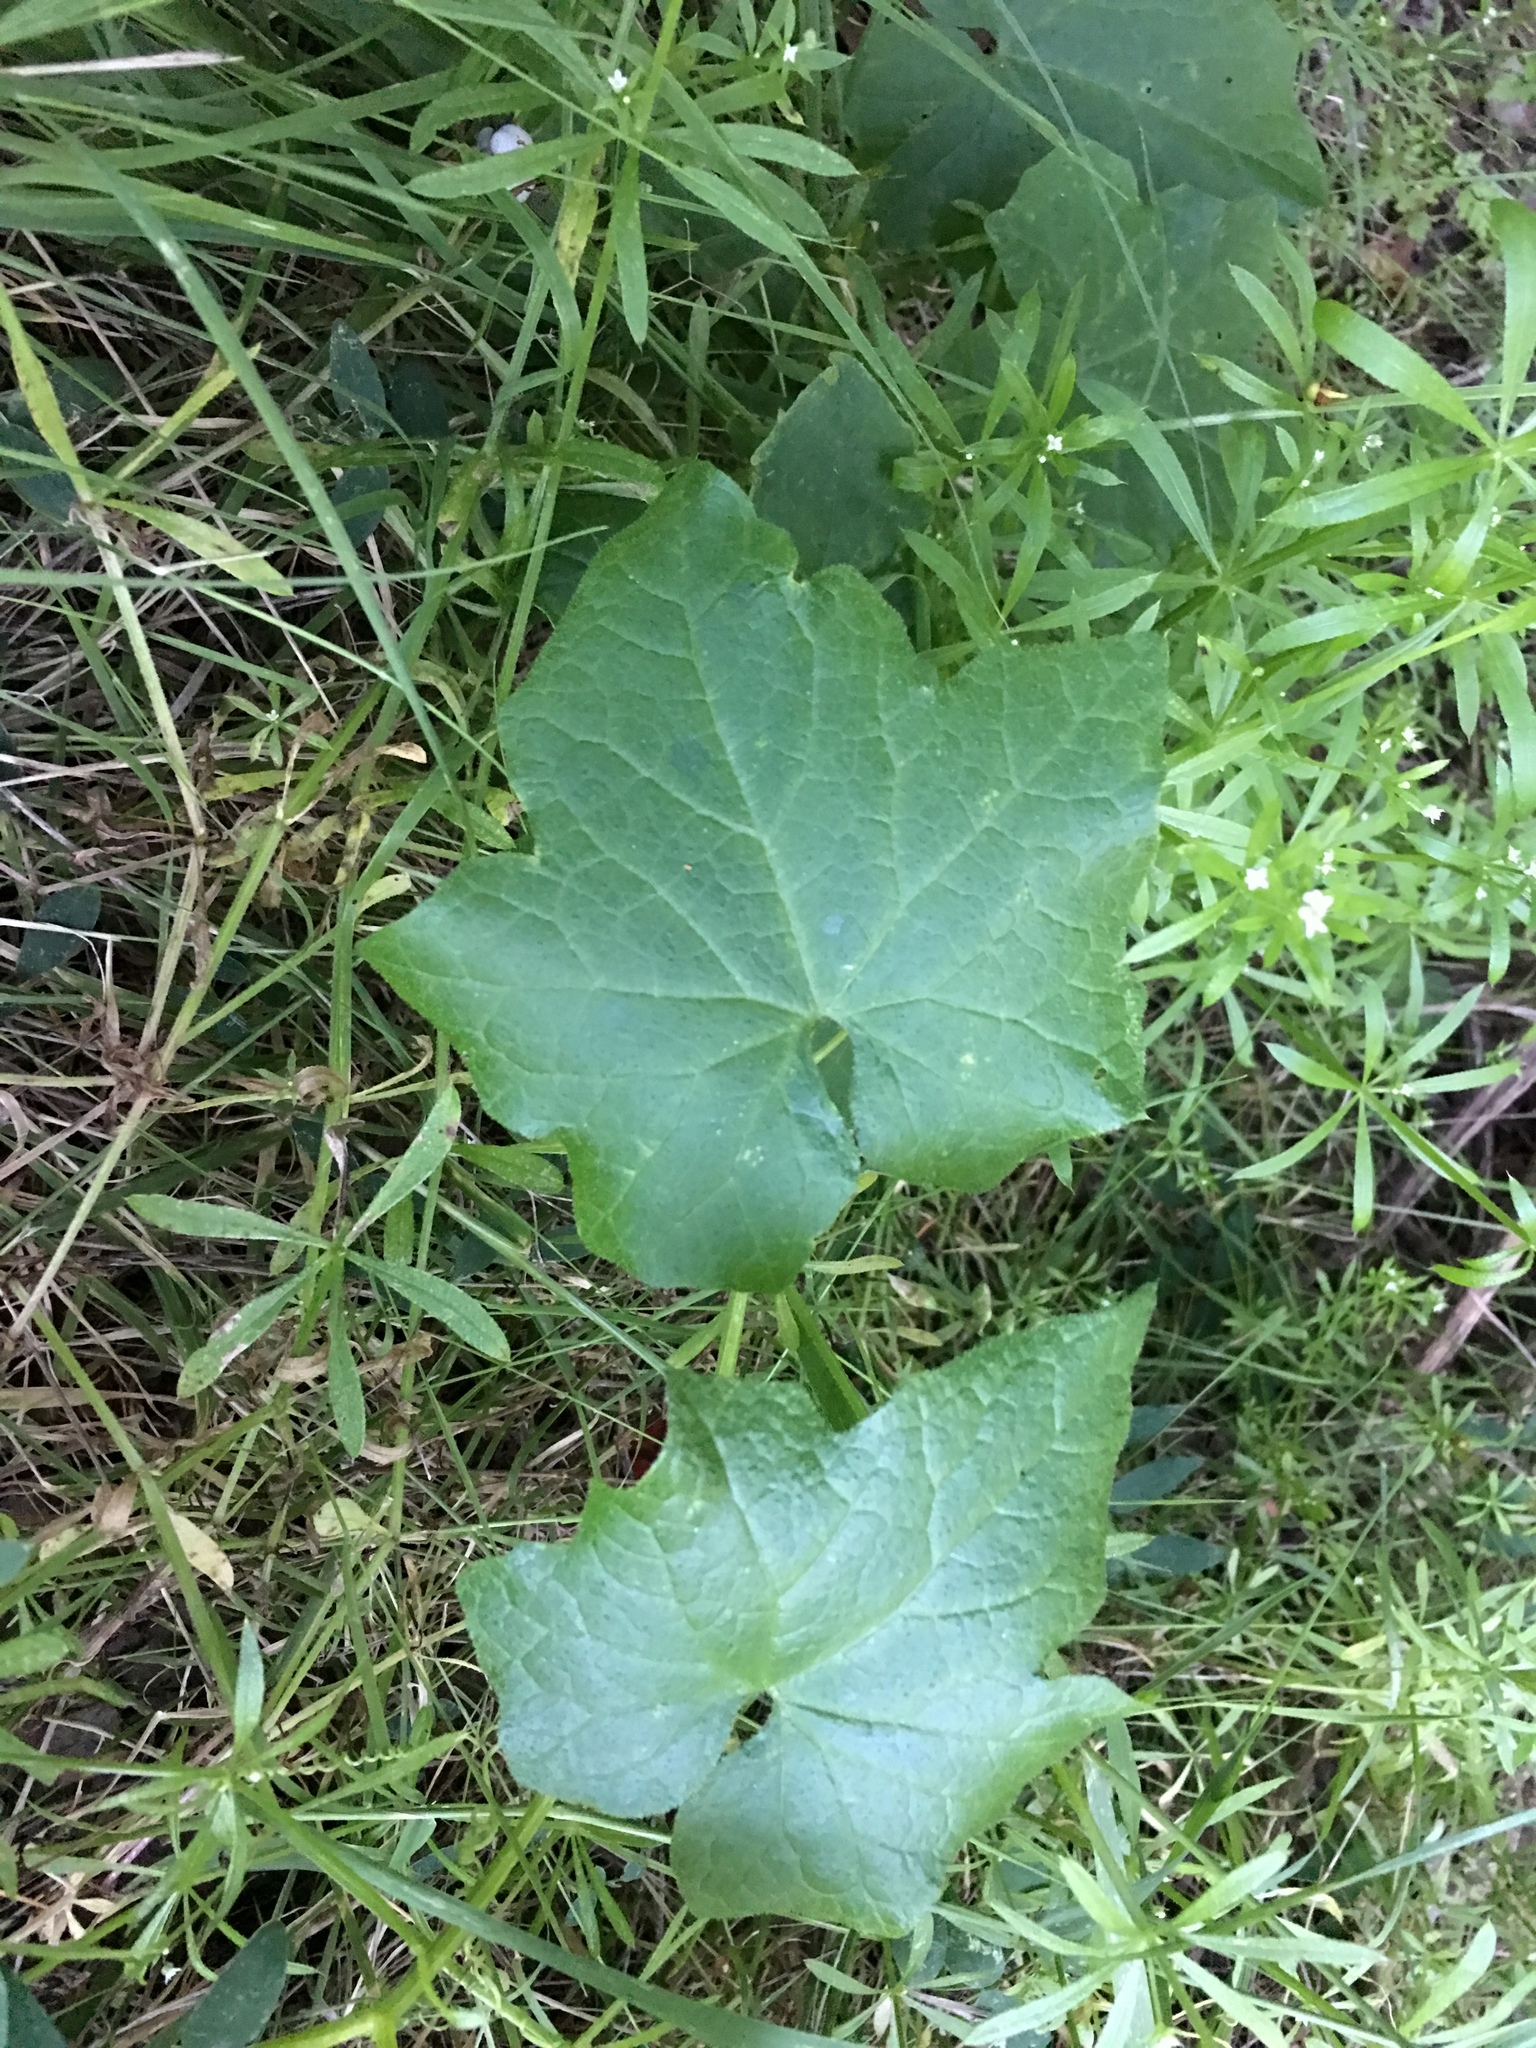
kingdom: Plantae
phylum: Tracheophyta
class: Magnoliopsida
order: Cucurbitales
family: Cucurbitaceae
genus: Marah
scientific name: Marah
